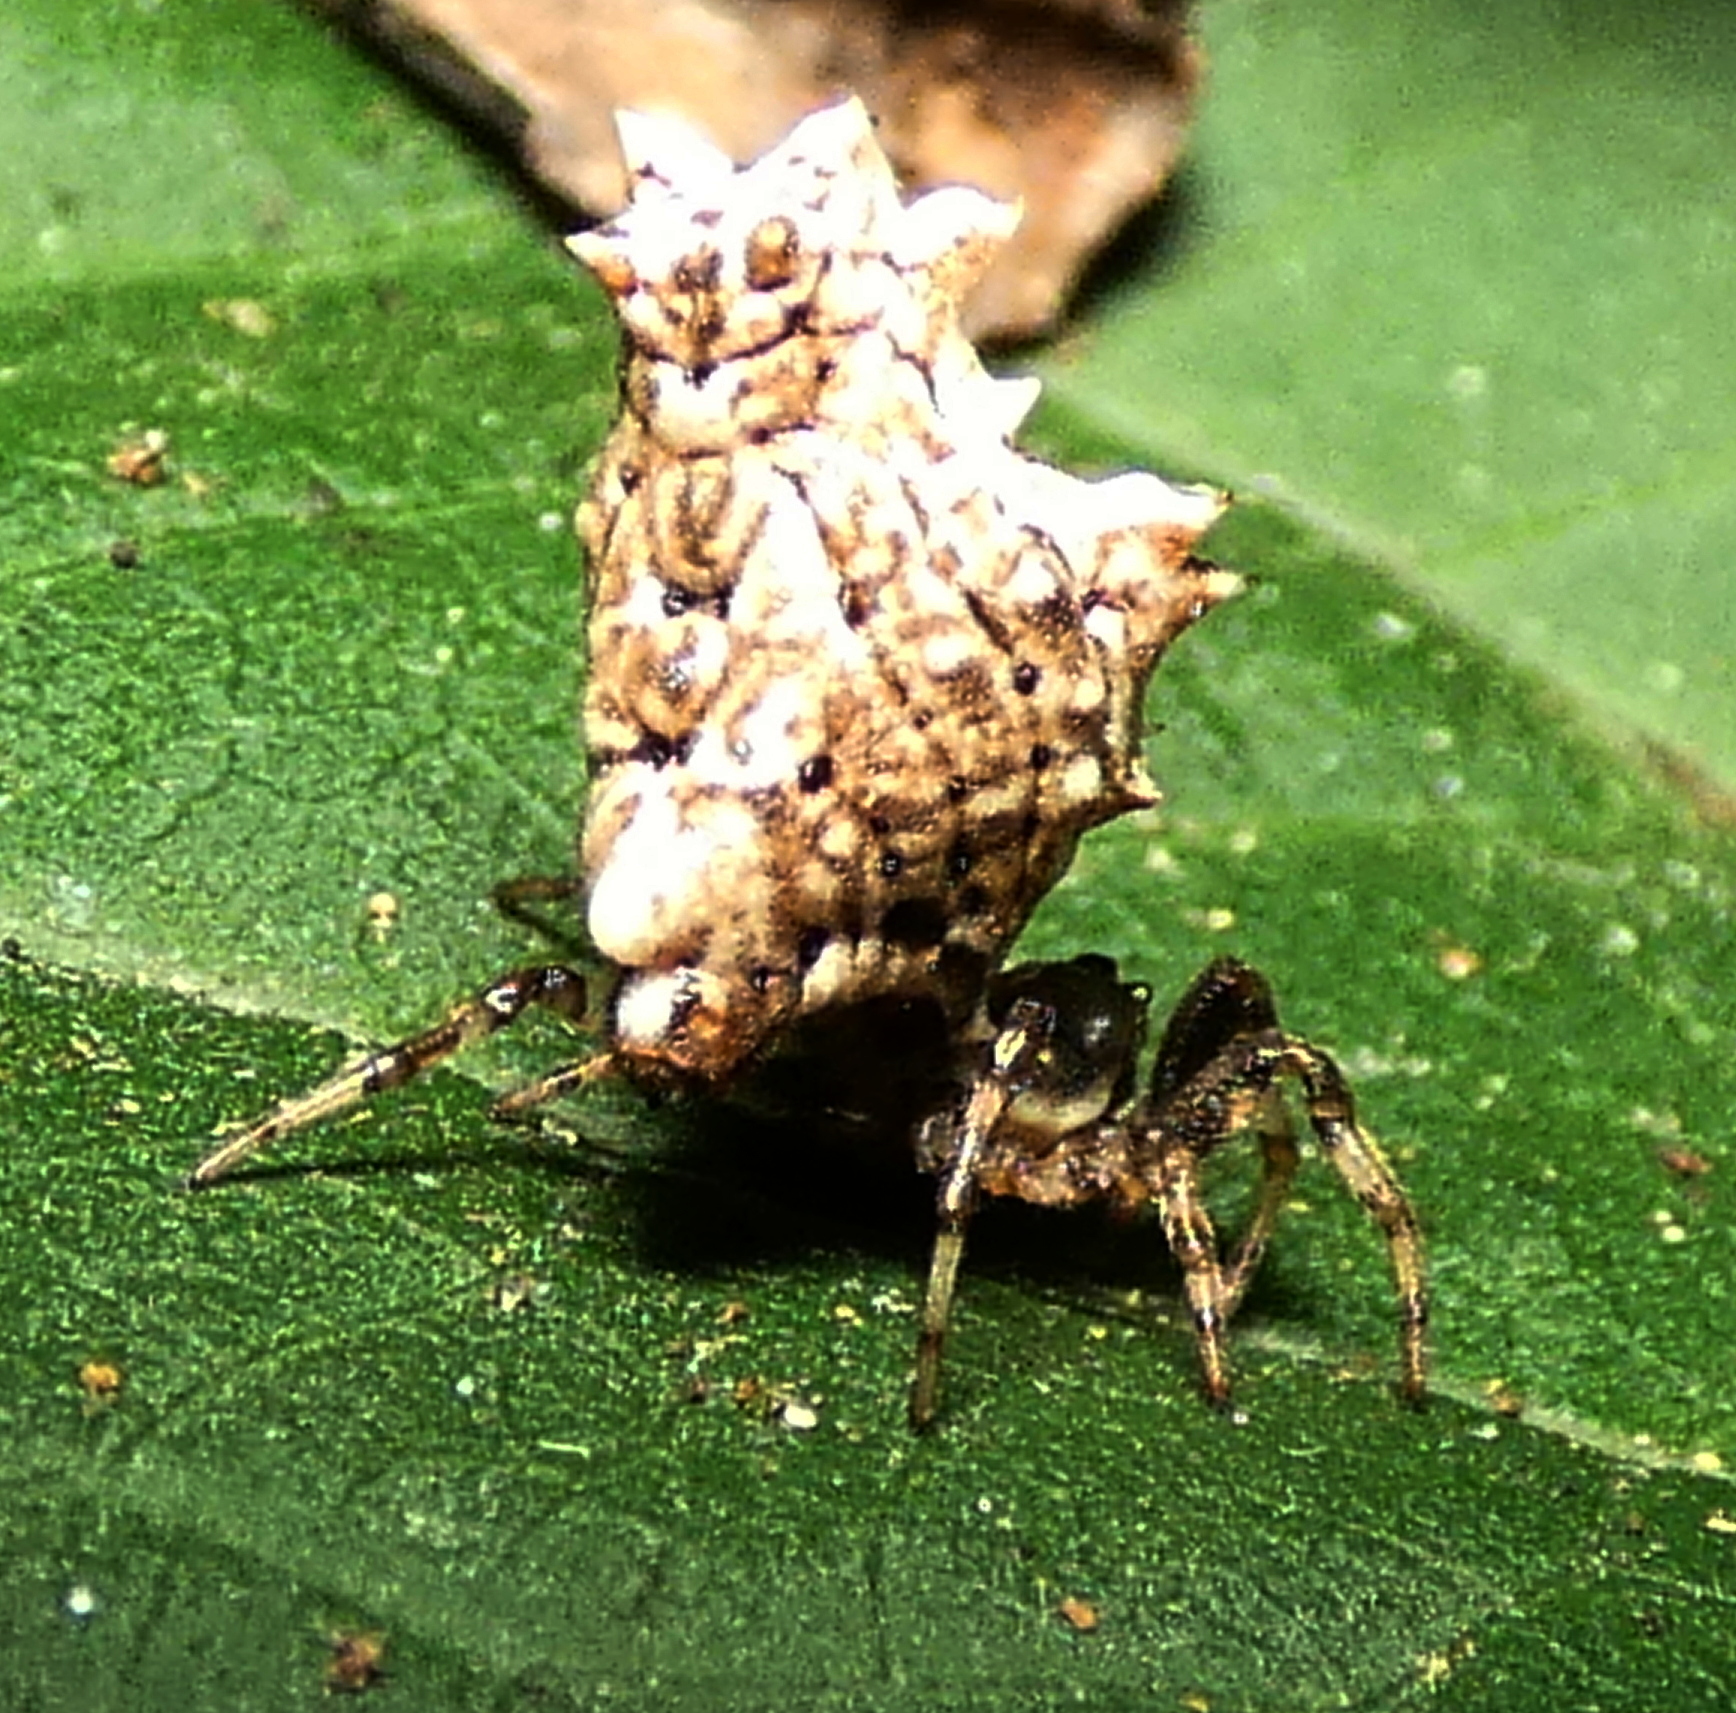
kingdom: Animalia
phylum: Arthropoda
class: Arachnida
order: Araneae
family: Araneidae
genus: Micrathena
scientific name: Micrathena horrida
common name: Orb weavers
